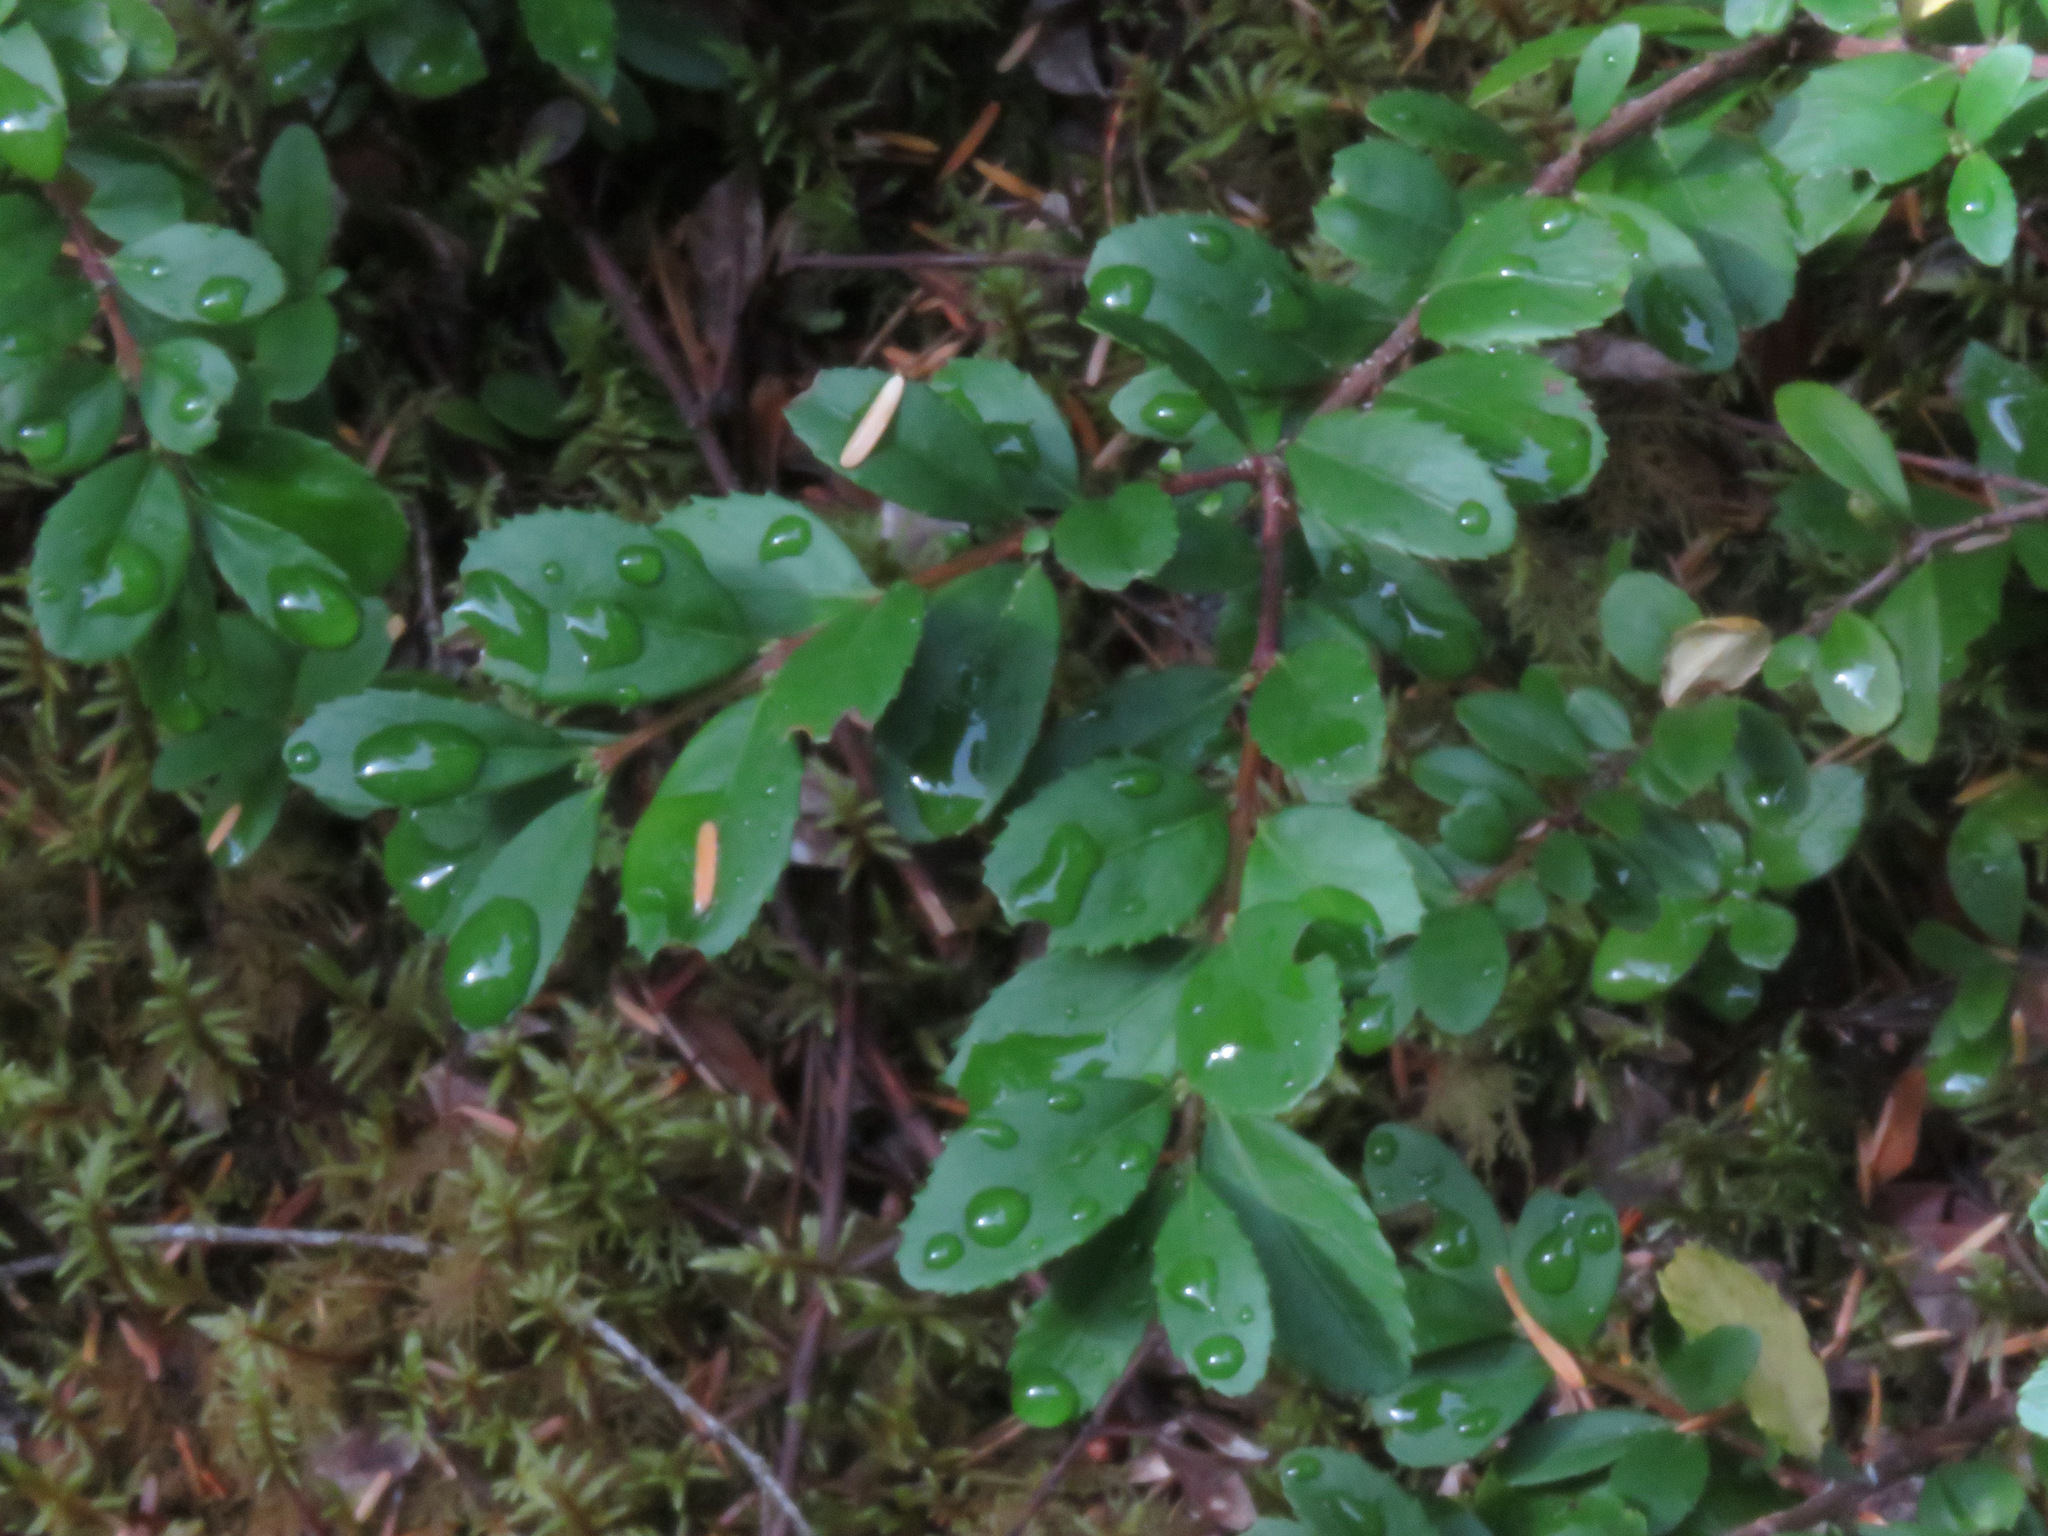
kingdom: Plantae
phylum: Tracheophyta
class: Magnoliopsida
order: Celastrales
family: Celastraceae
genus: Paxistima
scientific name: Paxistima myrsinites
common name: Mountain-lover
